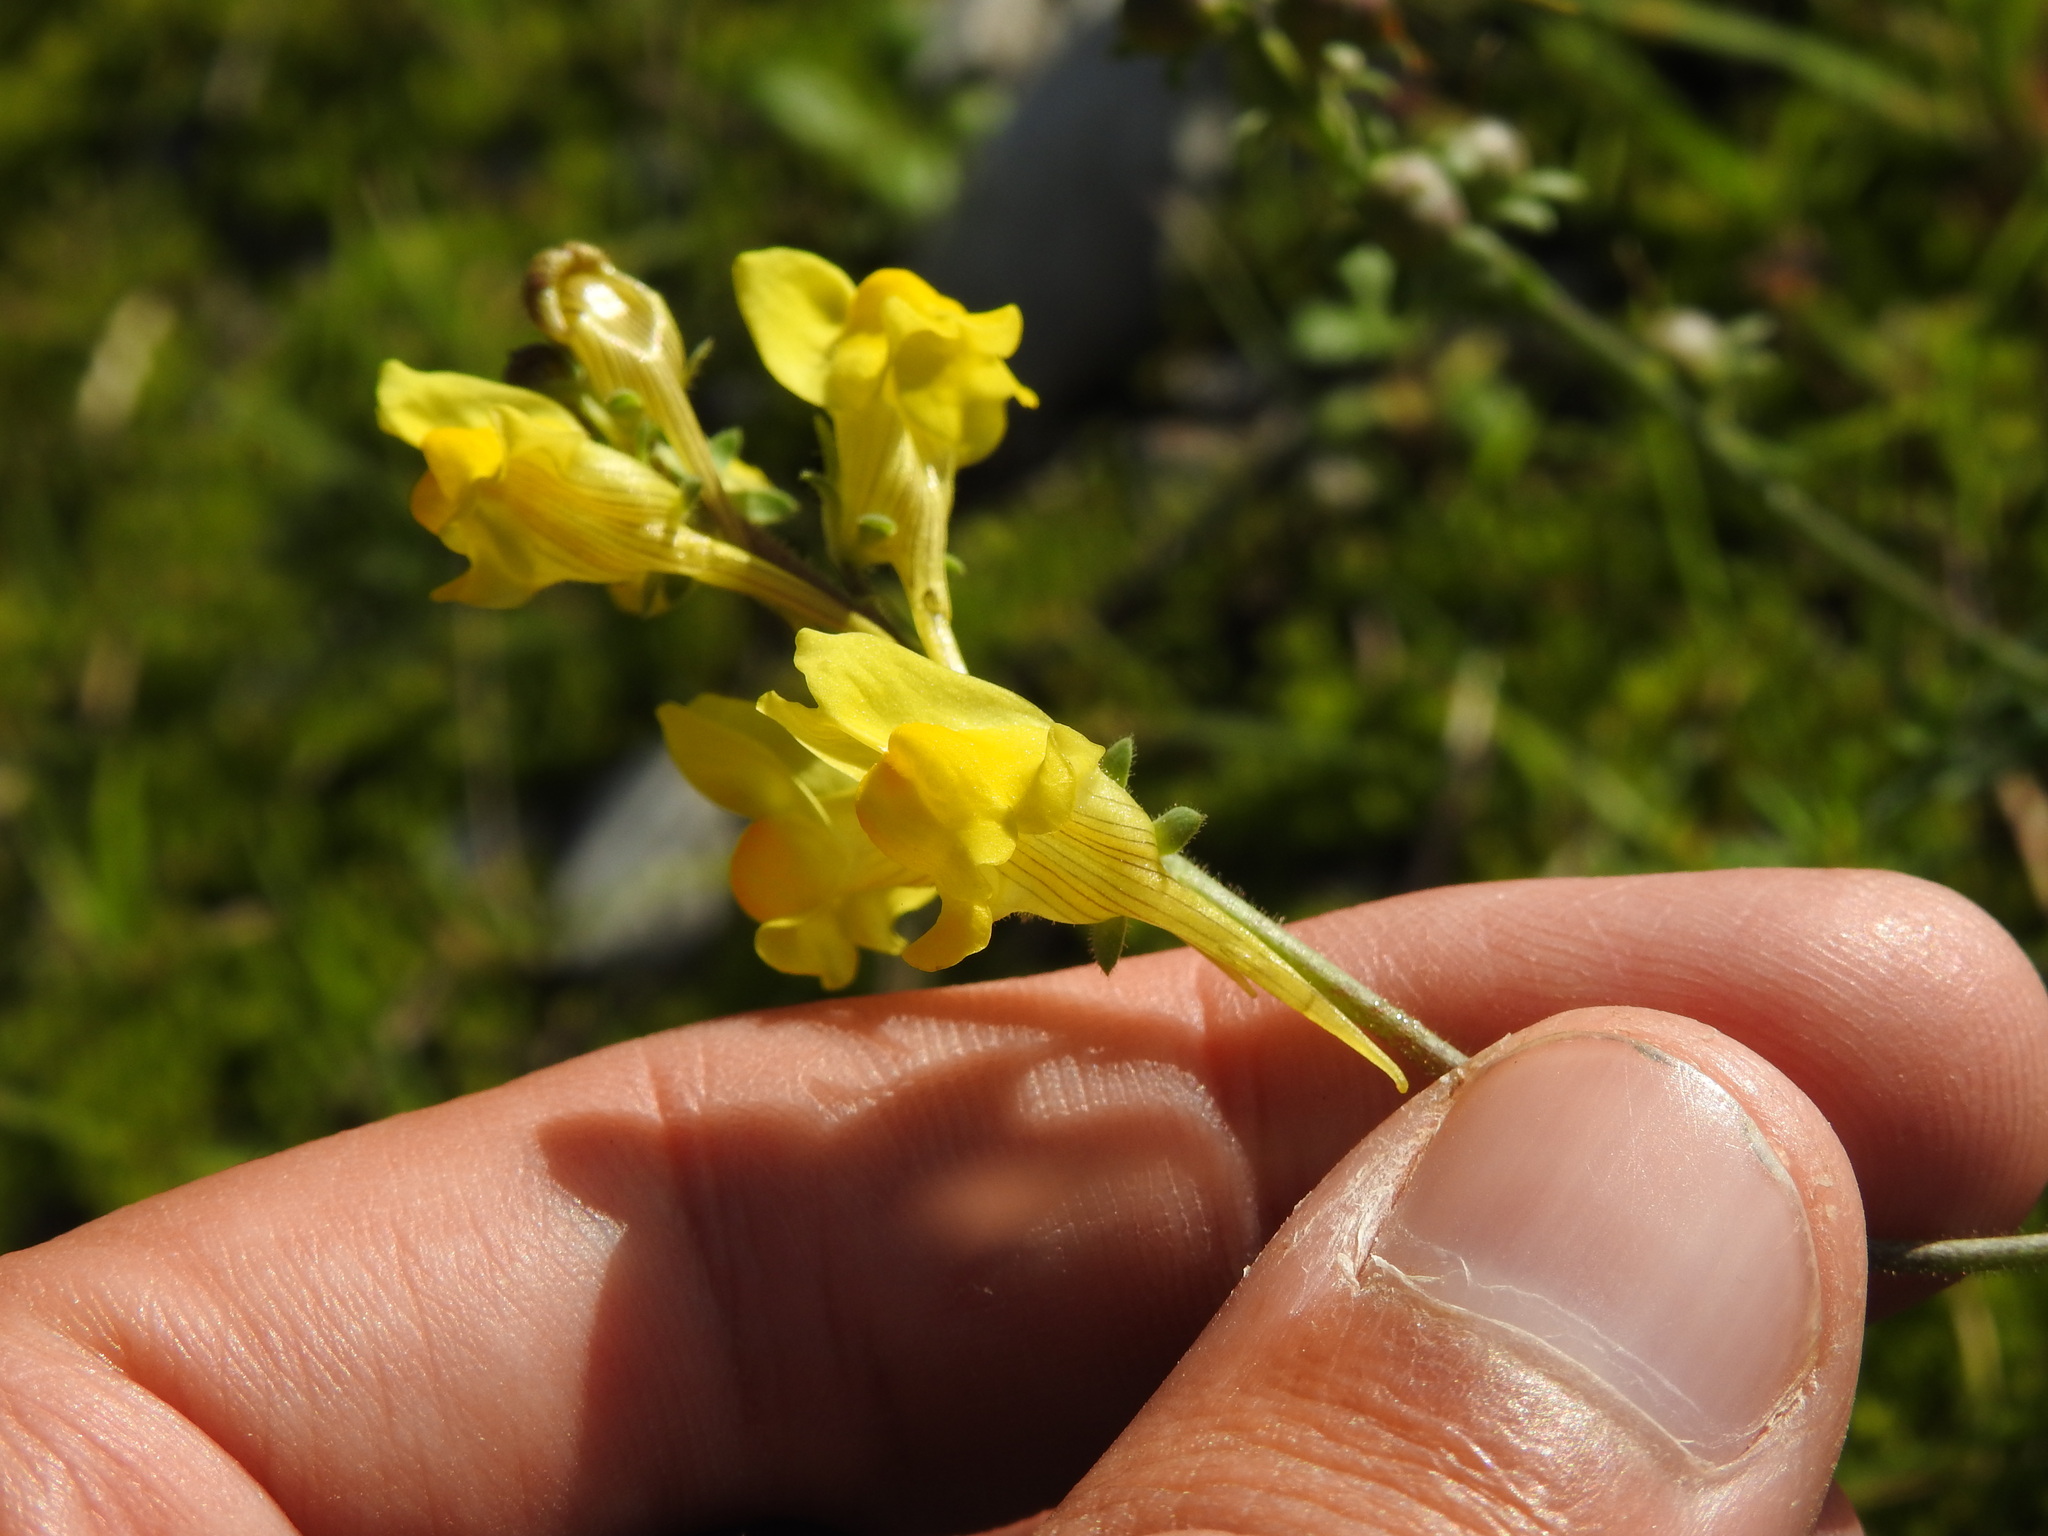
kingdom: Plantae
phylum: Tracheophyta
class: Magnoliopsida
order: Lamiales
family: Plantaginaceae
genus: Linaria
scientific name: Linaria supina
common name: Prostrate toadflax
